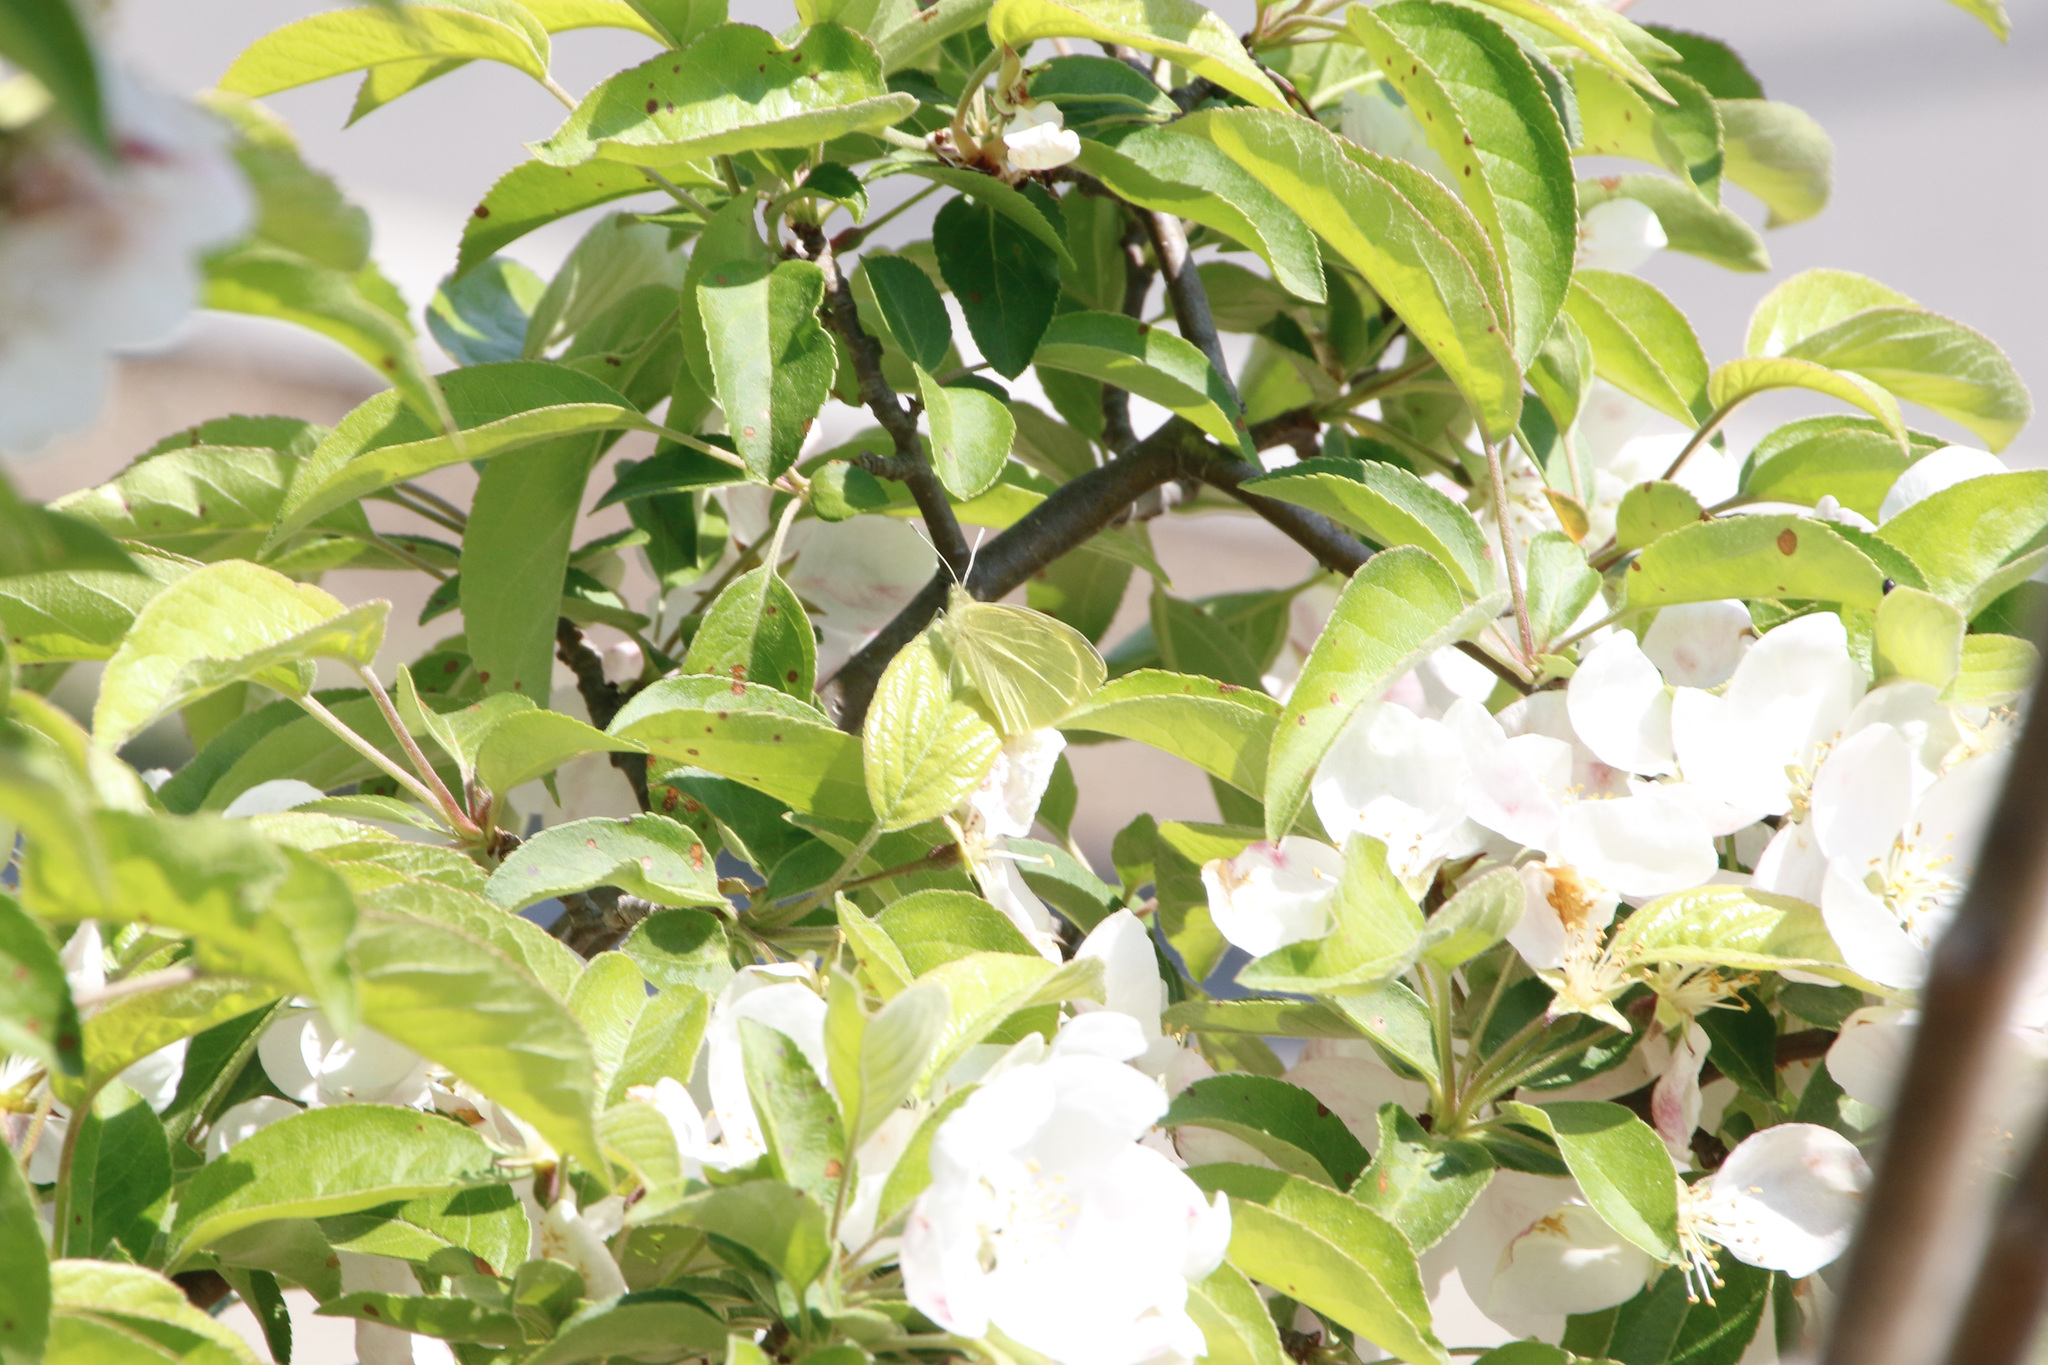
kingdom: Animalia
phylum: Arthropoda
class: Insecta
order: Lepidoptera
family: Pieridae
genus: Pieris
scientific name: Pieris rapae
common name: Small white
